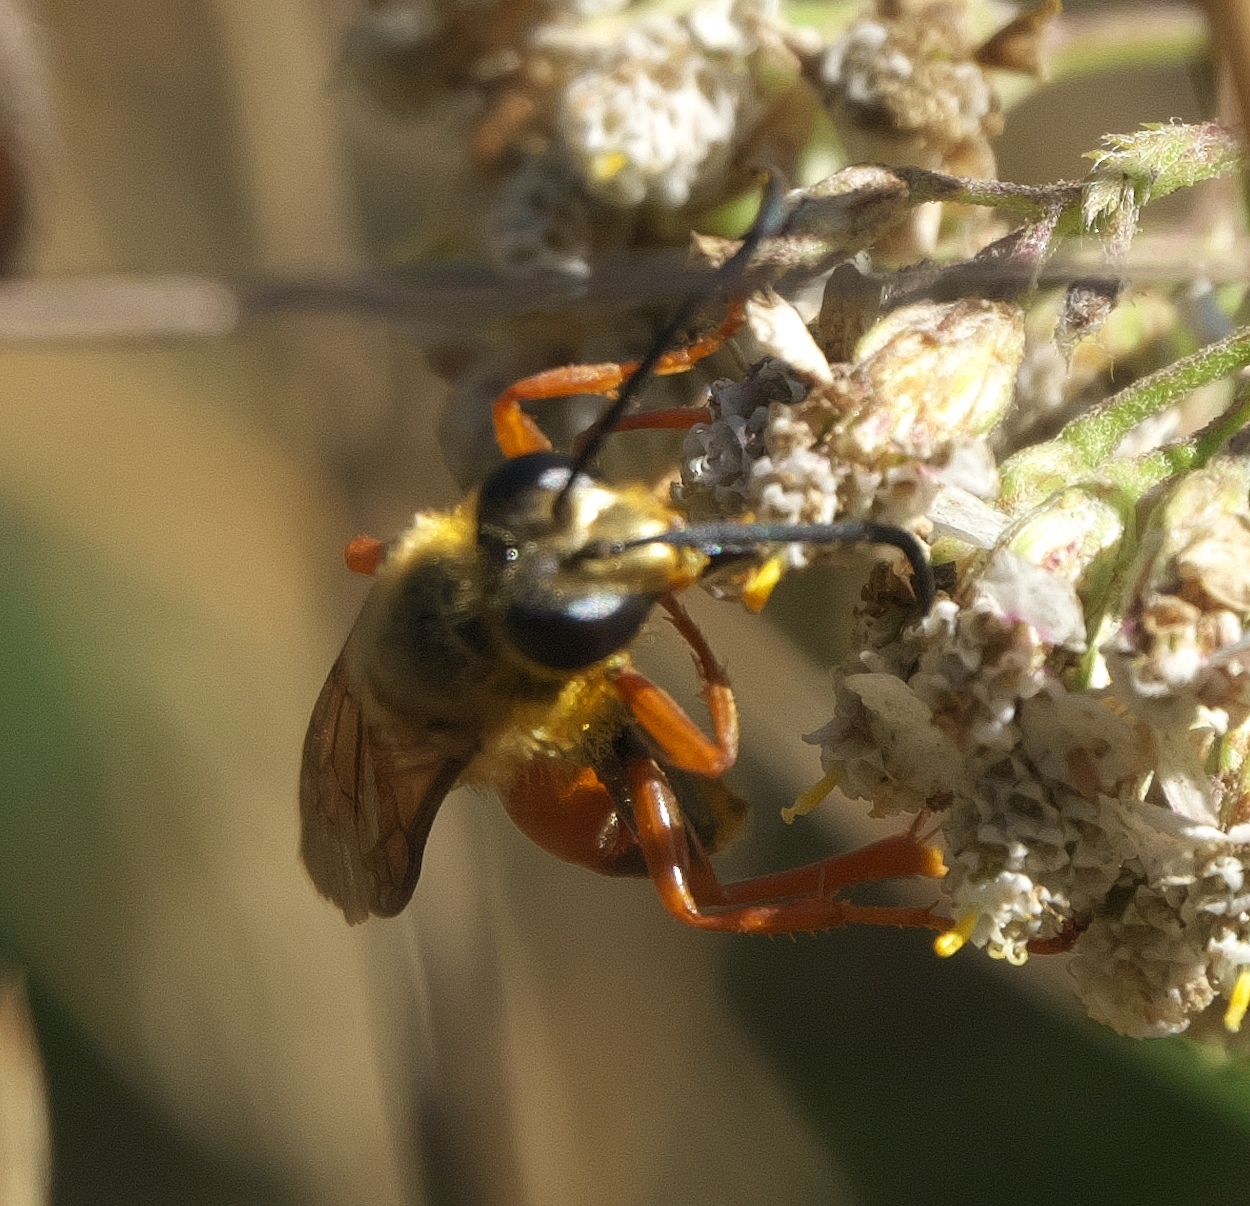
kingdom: Animalia
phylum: Arthropoda
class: Insecta
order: Hymenoptera
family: Sphecidae
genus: Sphex
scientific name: Sphex ichneumoneus
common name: Great golden digger wasp
